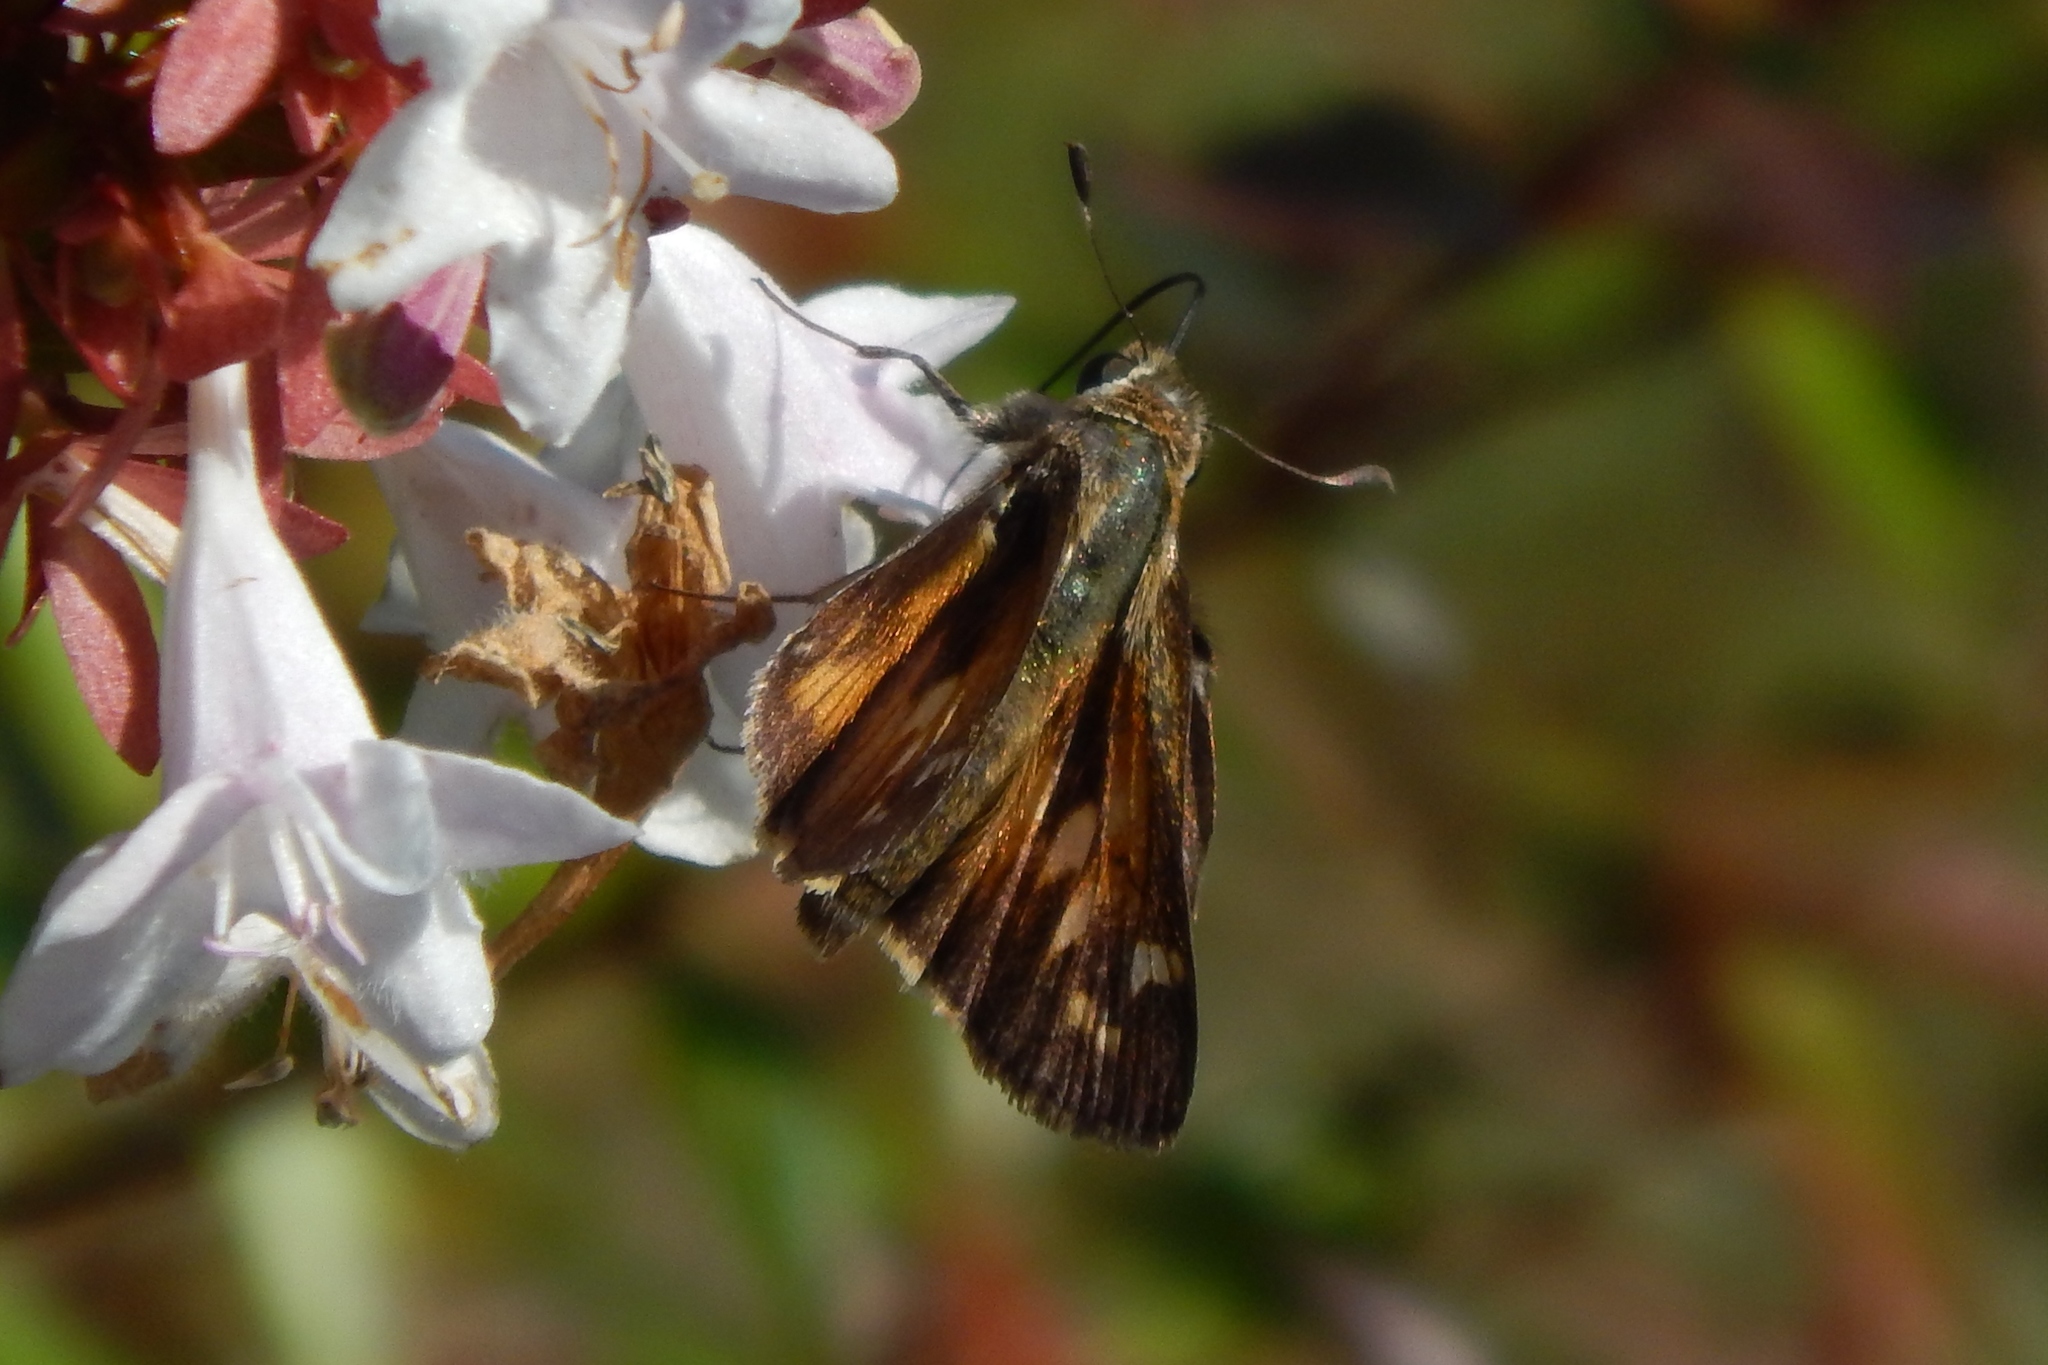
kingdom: Animalia
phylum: Arthropoda
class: Insecta
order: Lepidoptera
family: Hesperiidae
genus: Atalopedes
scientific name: Atalopedes
